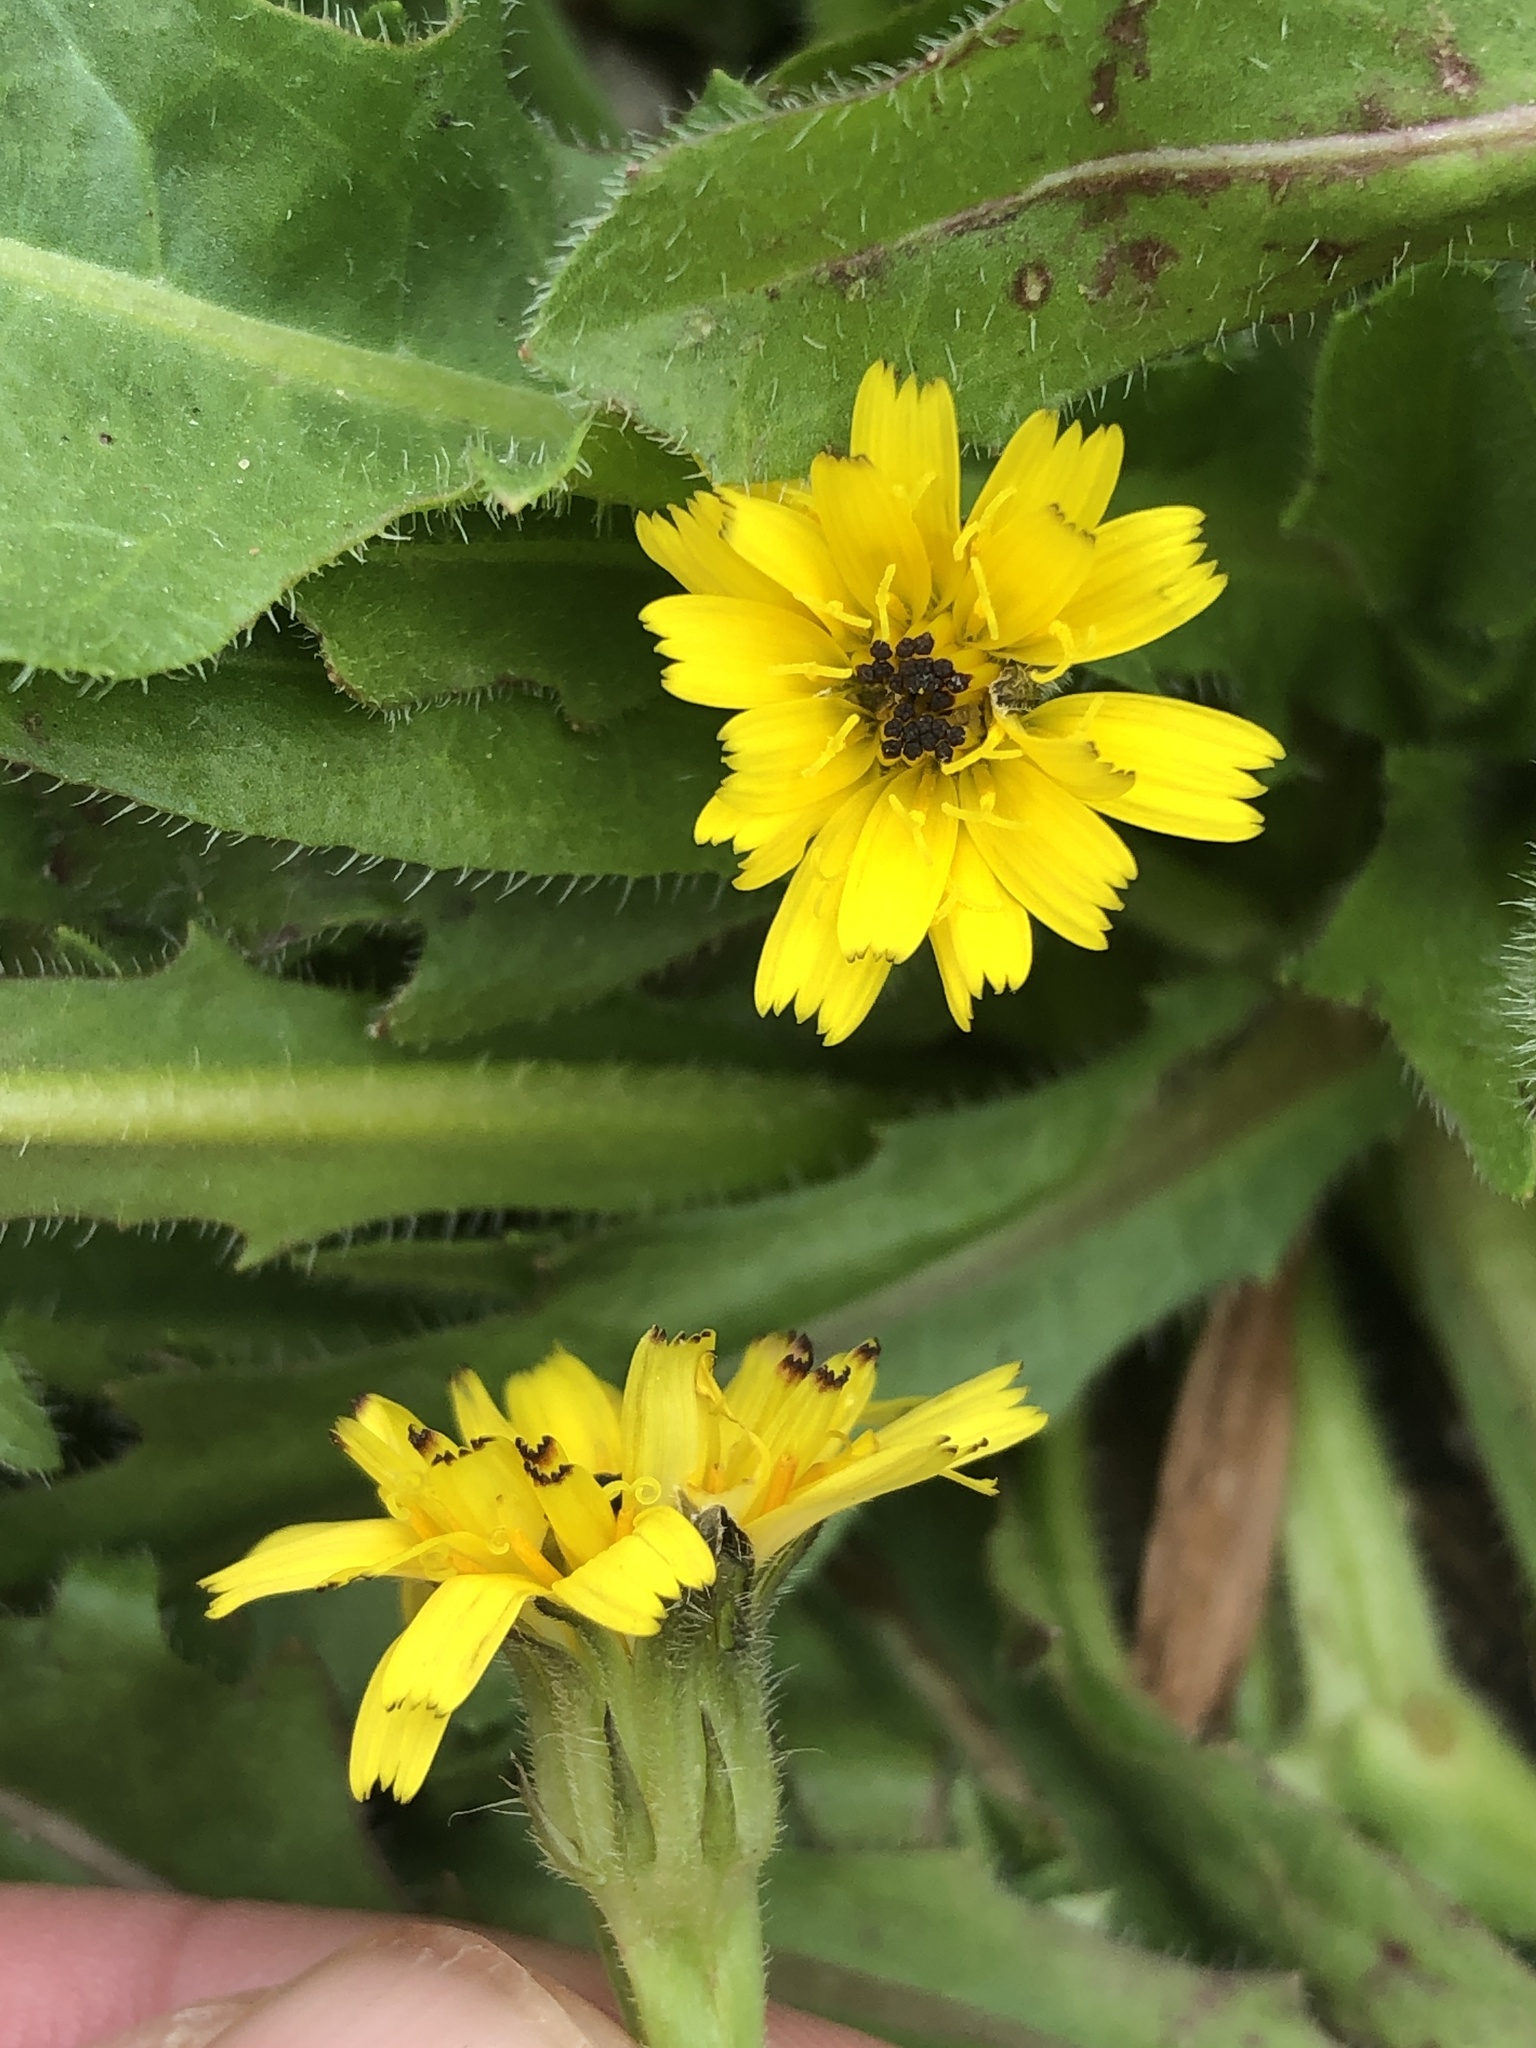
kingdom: Plantae
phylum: Tracheophyta
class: Magnoliopsida
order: Asterales
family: Asteraceae
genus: Hedypnois
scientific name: Hedypnois rhagadioloides
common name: Cretan weed
